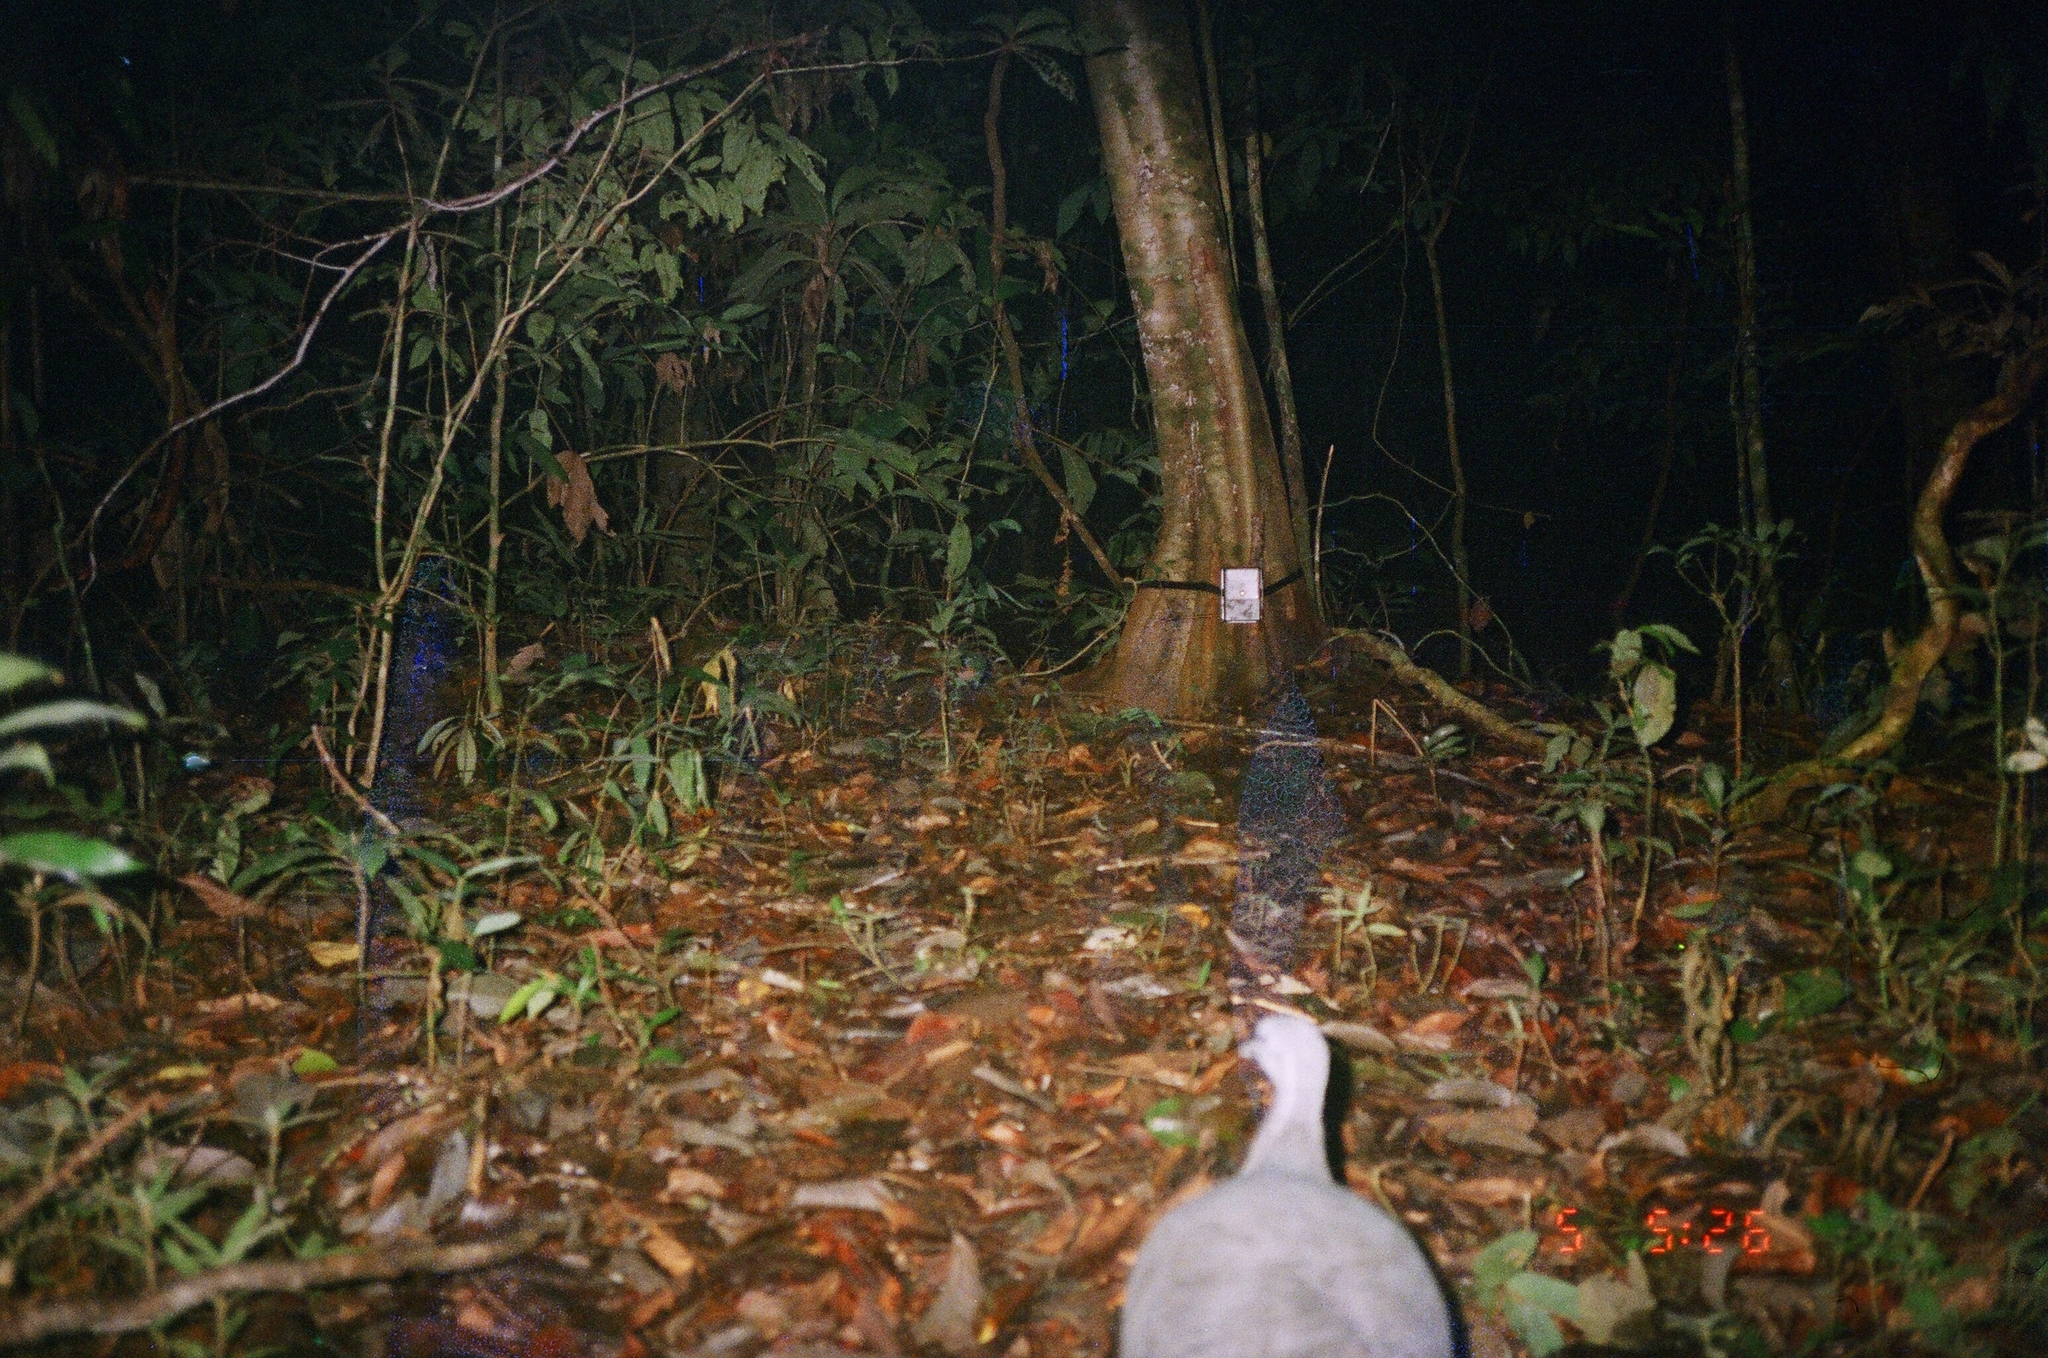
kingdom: Animalia
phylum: Chordata
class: Aves
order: Tinamiformes
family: Tinamidae
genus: Tinamus
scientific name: Tinamus tao
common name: Grey tinamou
